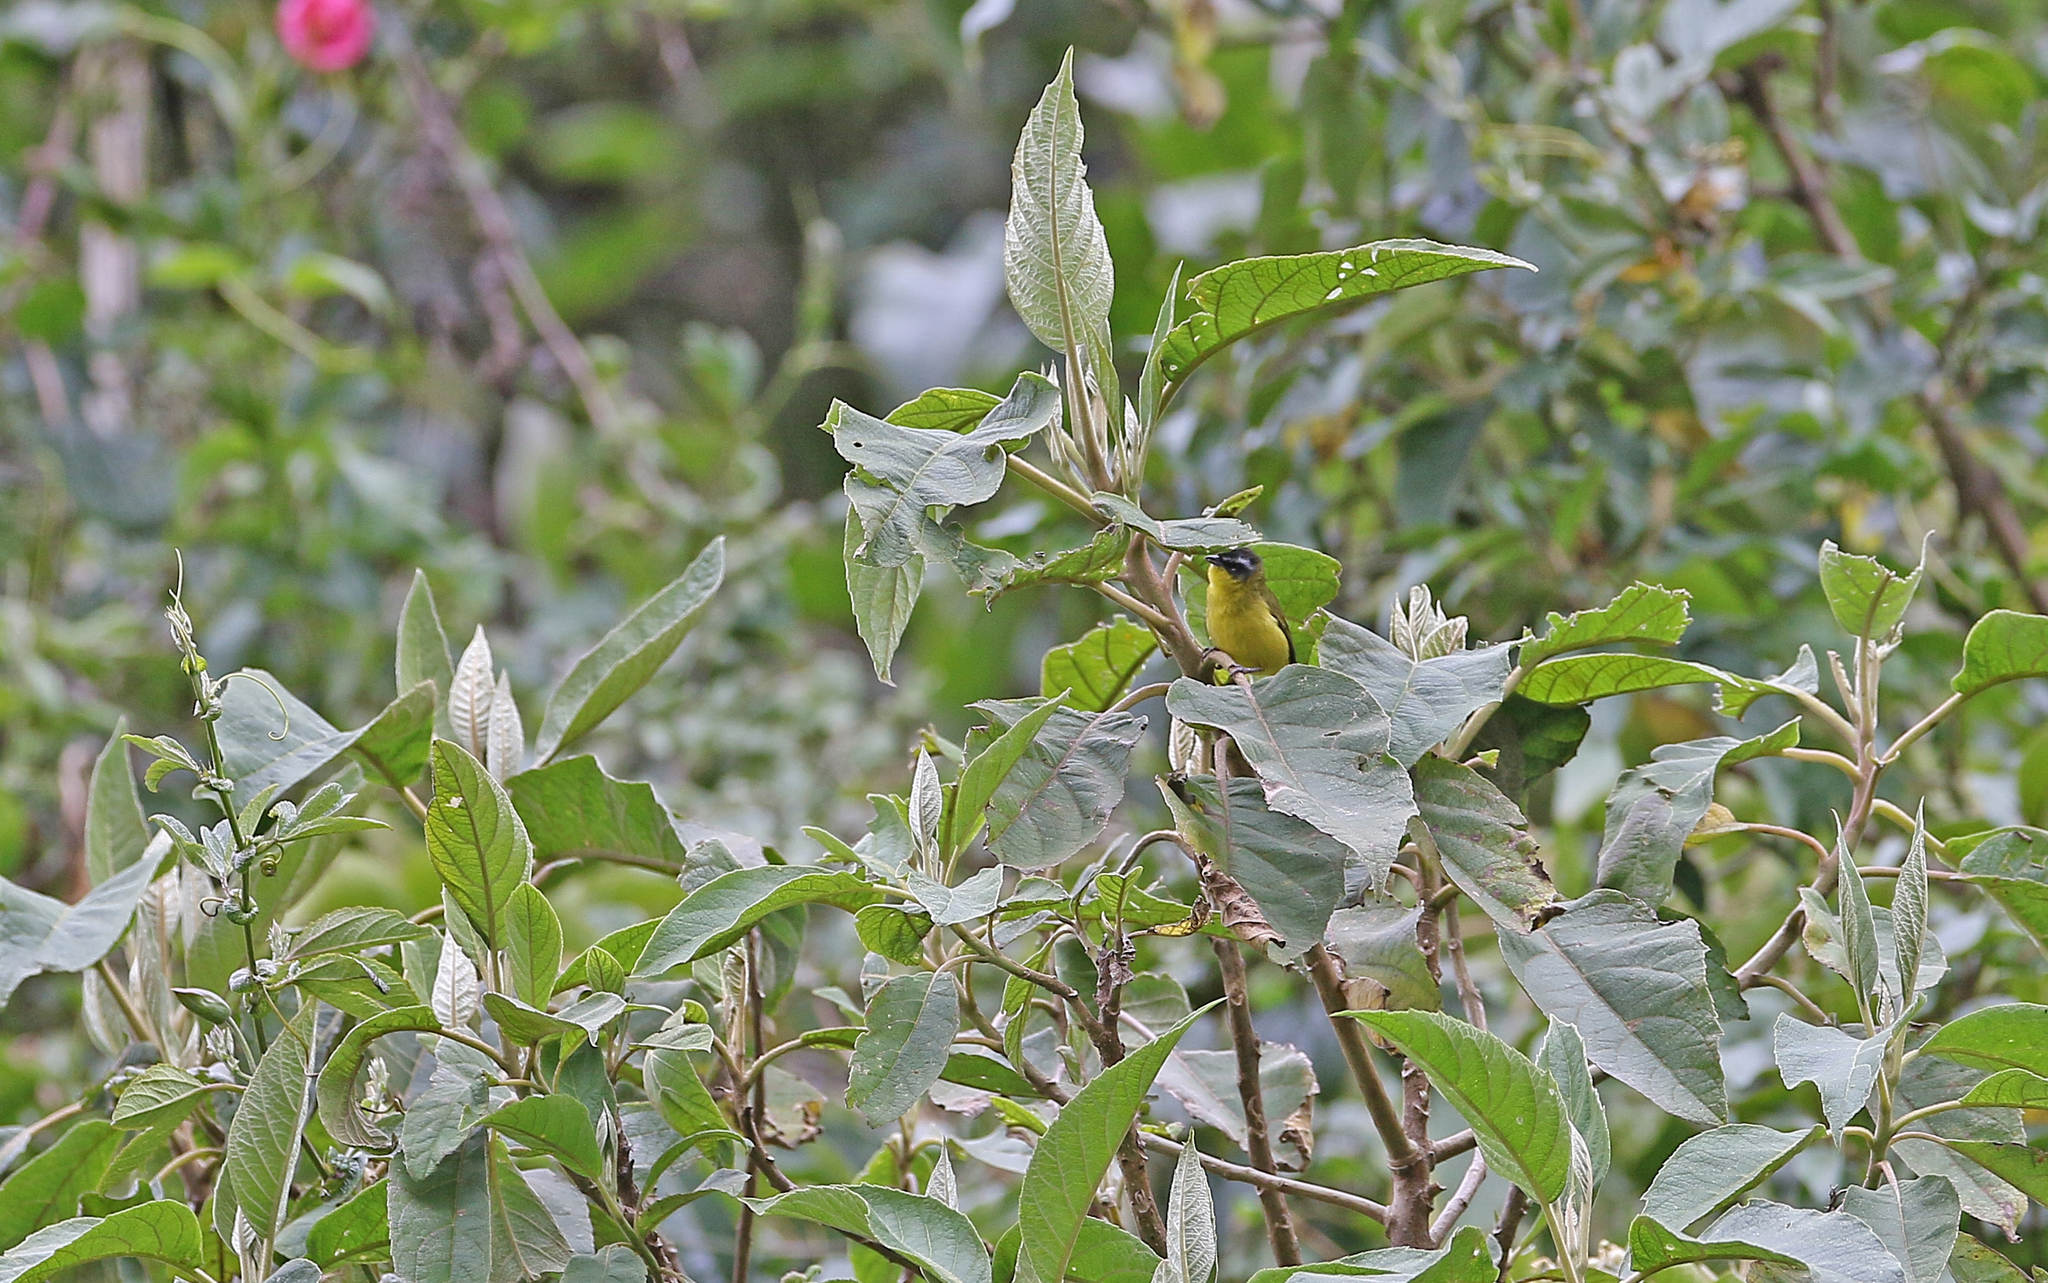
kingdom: Animalia
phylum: Chordata
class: Aves
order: Passeriformes
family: Thraupidae
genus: Thlypopsis
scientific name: Thlypopsis superciliaris
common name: Superciliaried hemispingus
